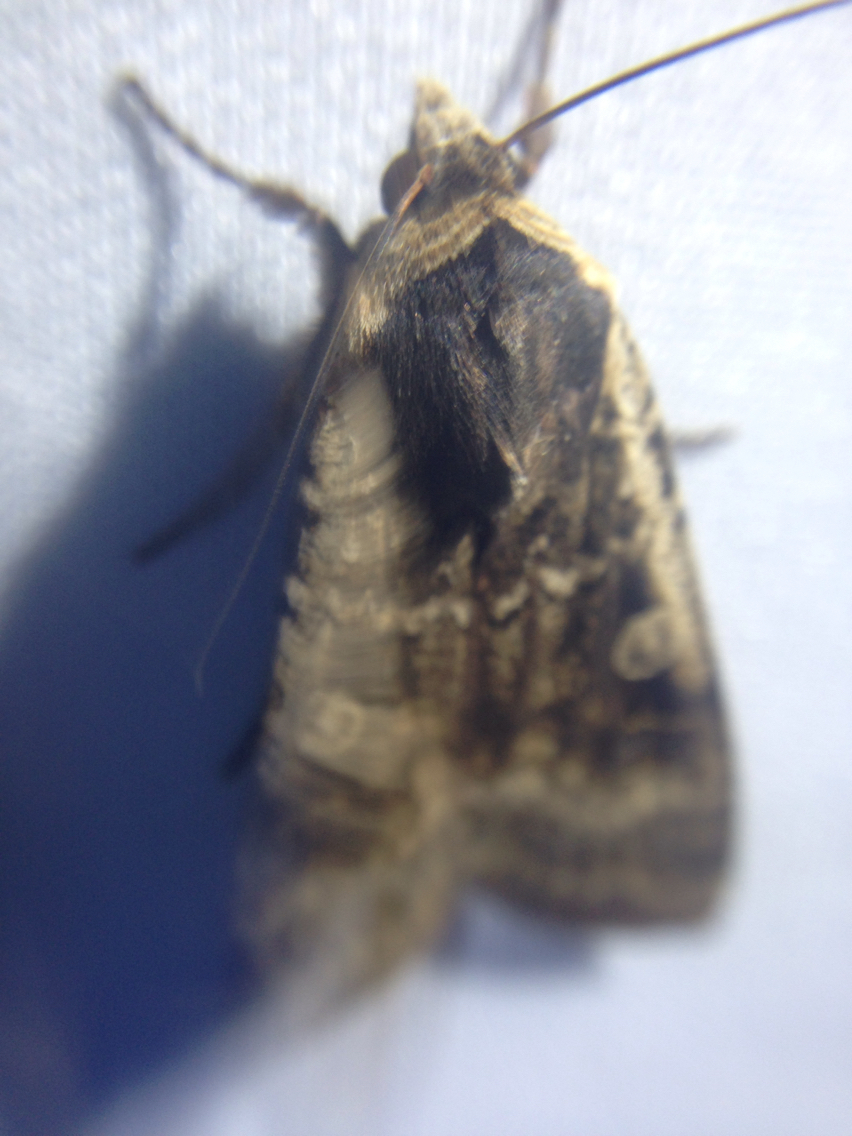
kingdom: Animalia
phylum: Arthropoda
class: Insecta
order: Lepidoptera
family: Noctuidae
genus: Noctua
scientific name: Noctua pronuba
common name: Large yellow underwing
